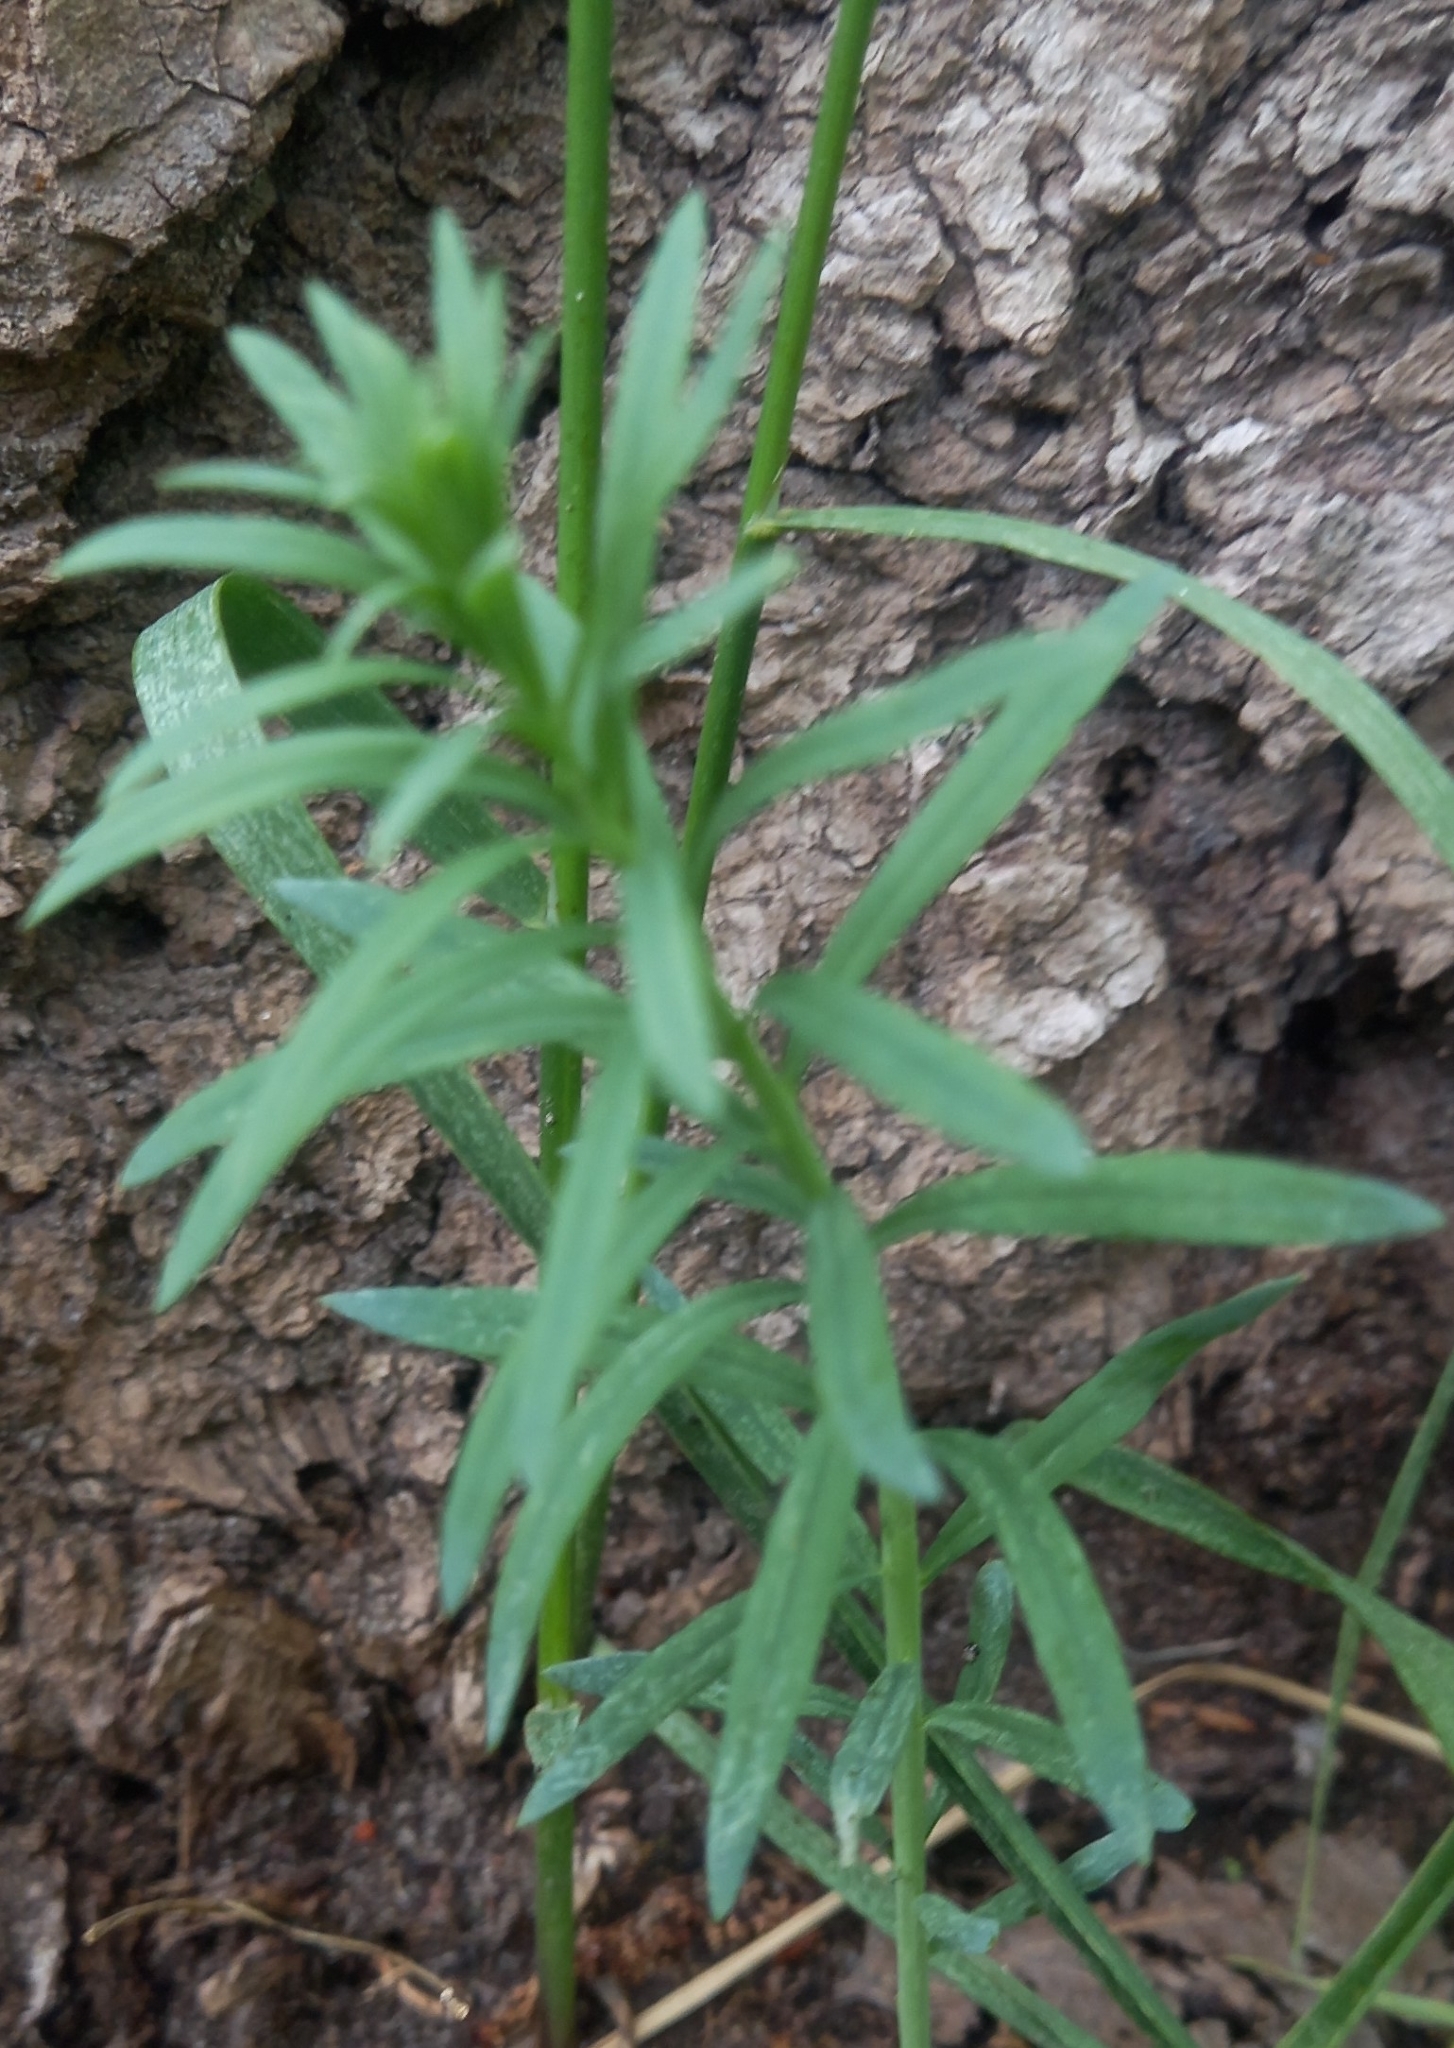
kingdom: Plantae
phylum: Tracheophyta
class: Magnoliopsida
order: Lamiales
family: Plantaginaceae
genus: Linaria
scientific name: Linaria vulgaris
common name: Butter and eggs
